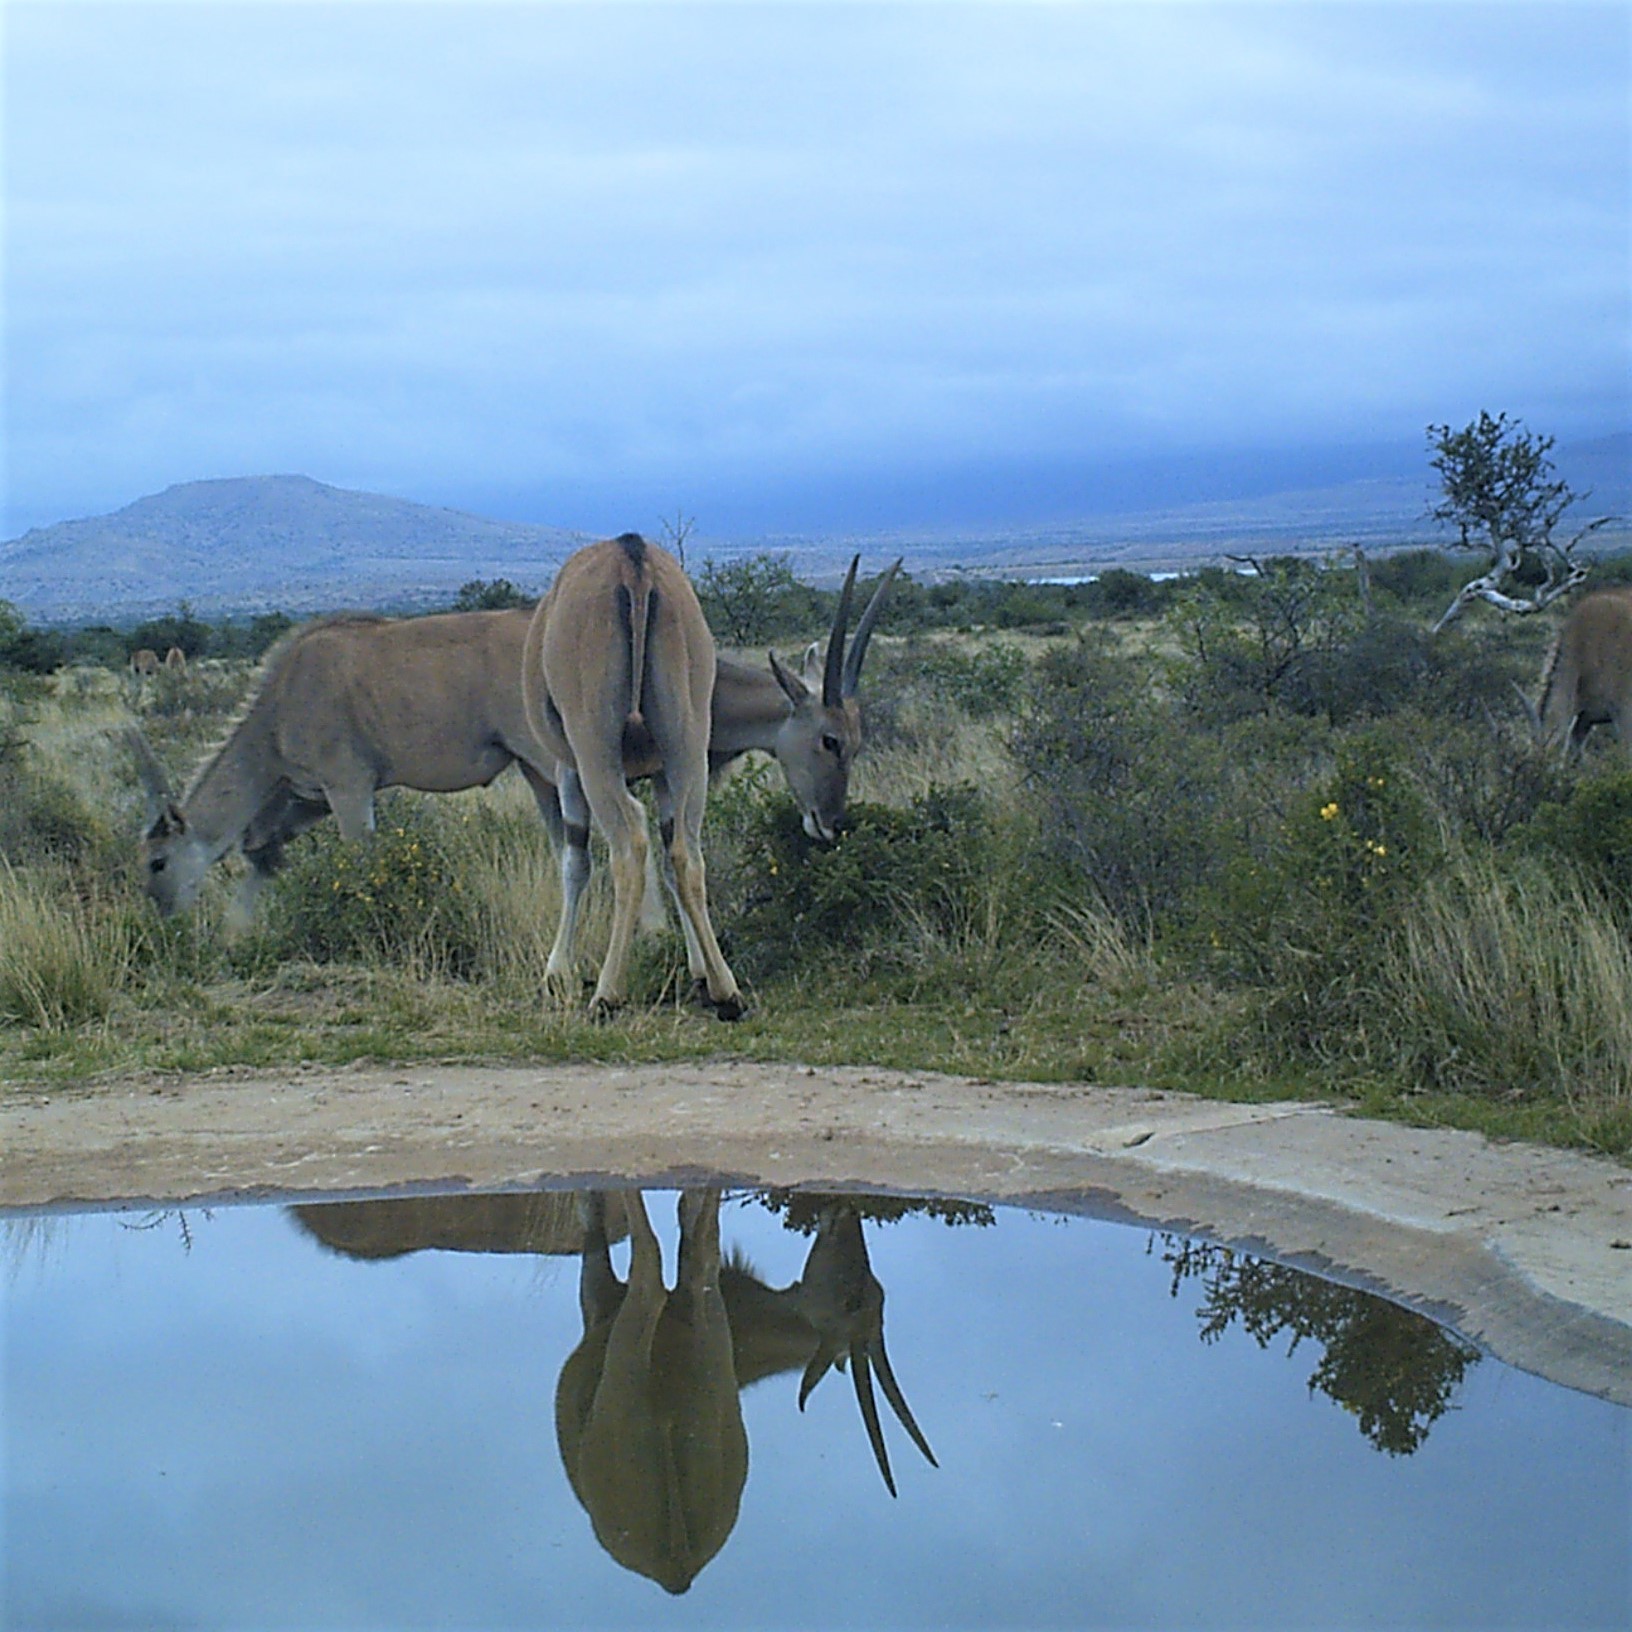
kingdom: Animalia
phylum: Chordata
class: Mammalia
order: Artiodactyla
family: Bovidae
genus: Taurotragus
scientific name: Taurotragus oryx
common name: Common eland
